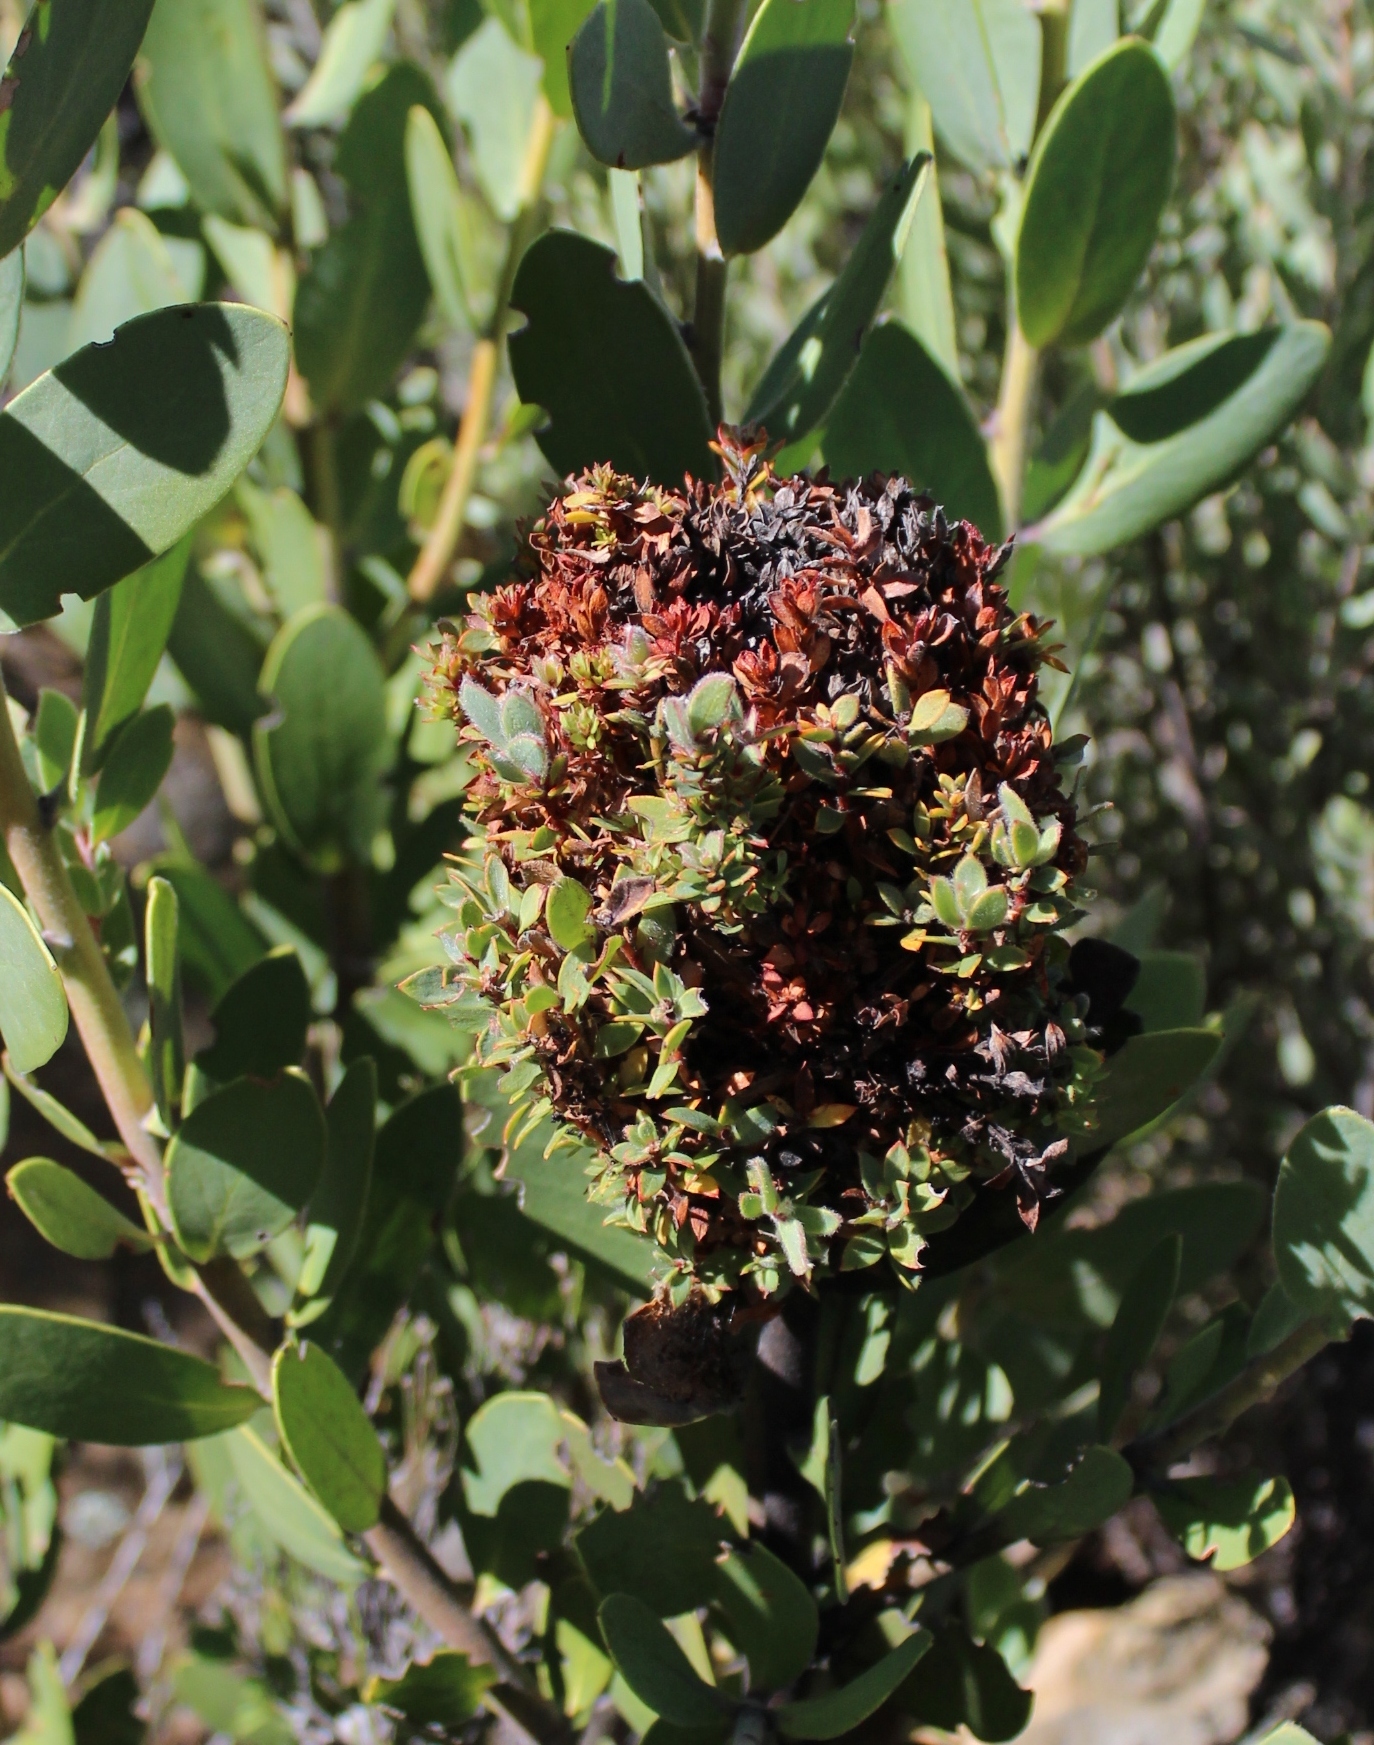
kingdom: Bacteria
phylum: Firmicutes
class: Bacilli
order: Acholeplasmatales
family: Acholeplasmataceae
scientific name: Acholeplasmataceae
